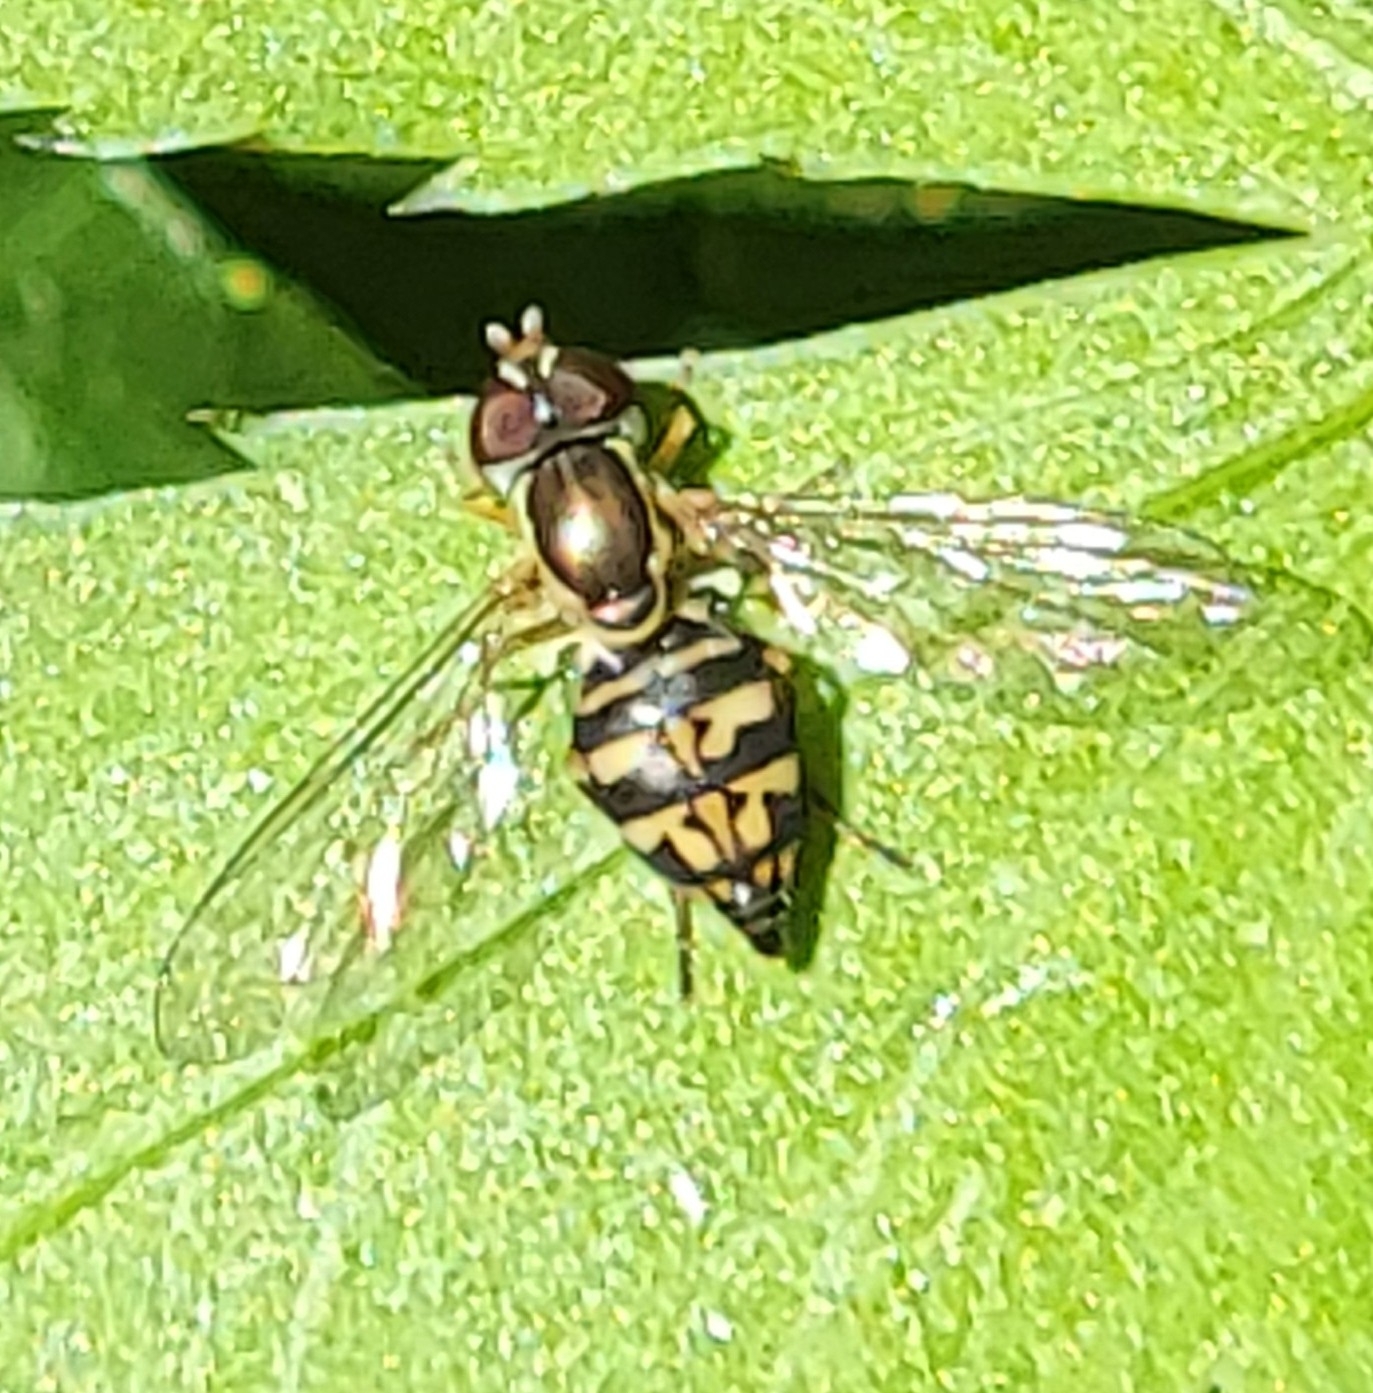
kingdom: Animalia
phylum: Arthropoda
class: Insecta
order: Diptera
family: Syrphidae
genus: Toxomerus
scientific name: Toxomerus geminatus
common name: Eastern calligrapher
